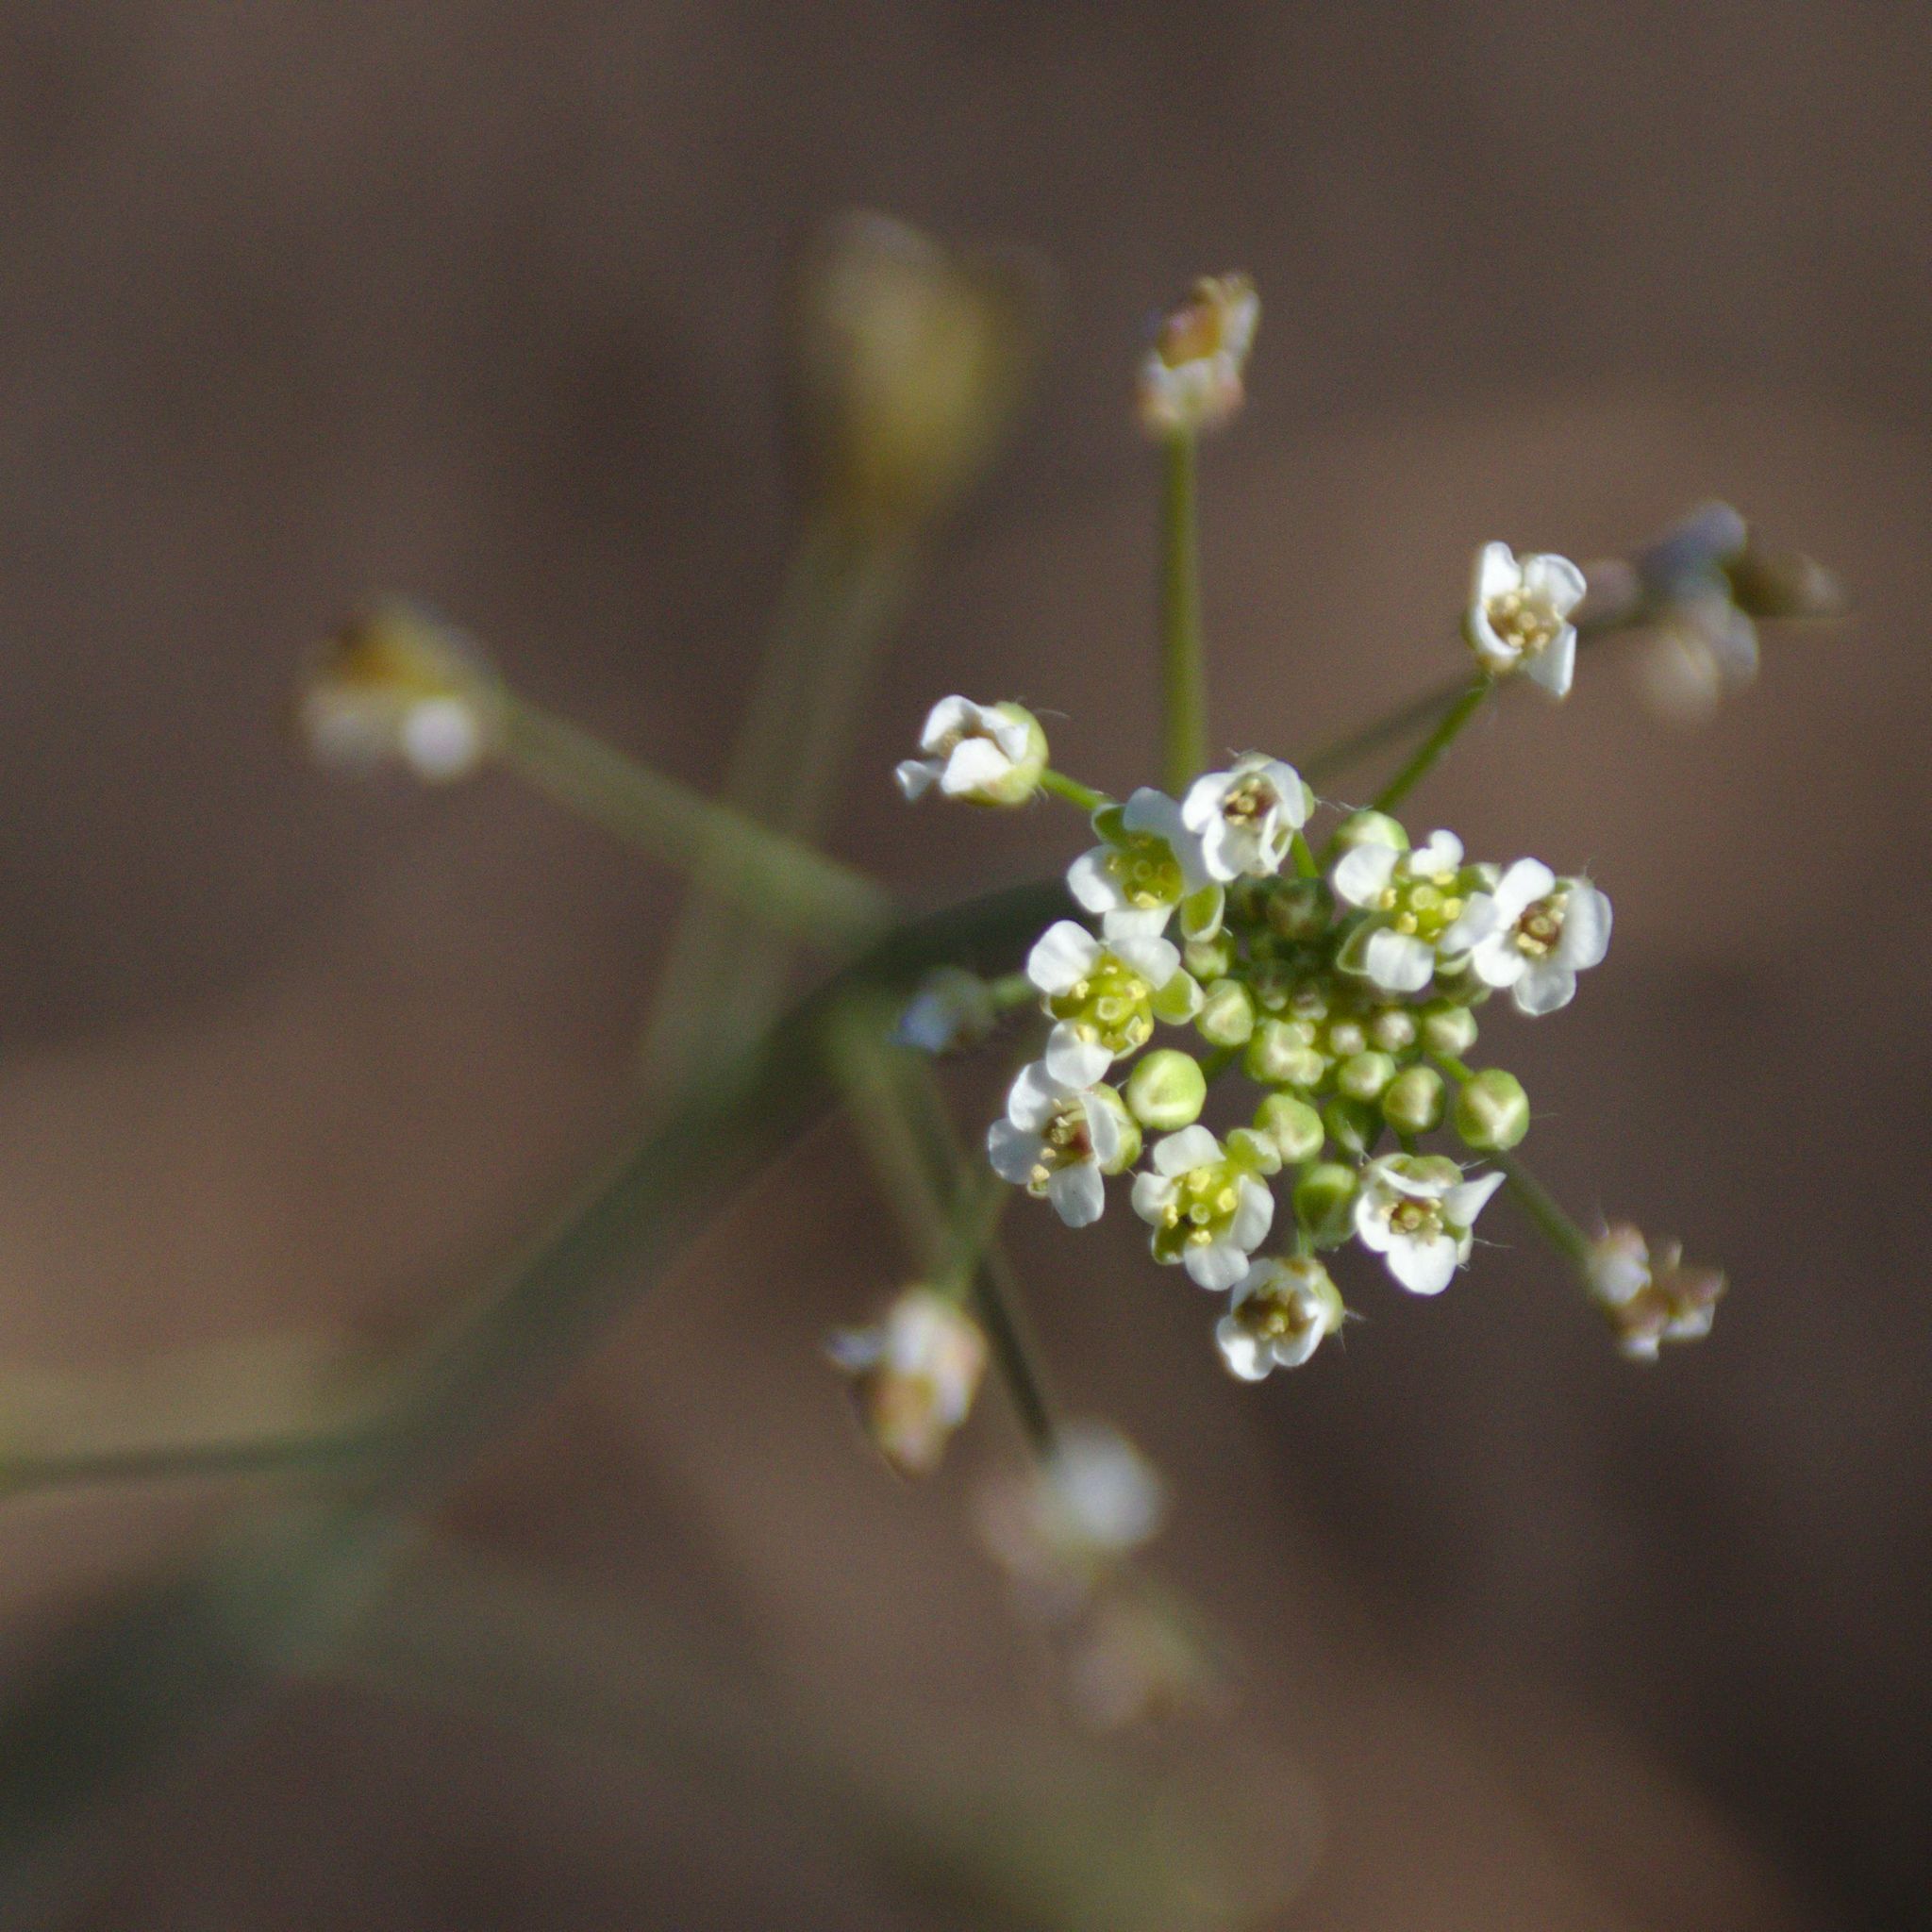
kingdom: Plantae
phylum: Tracheophyta
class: Magnoliopsida
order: Brassicales
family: Brassicaceae
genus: Capsella
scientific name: Capsella bursa-pastoris
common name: Shepherd's purse
